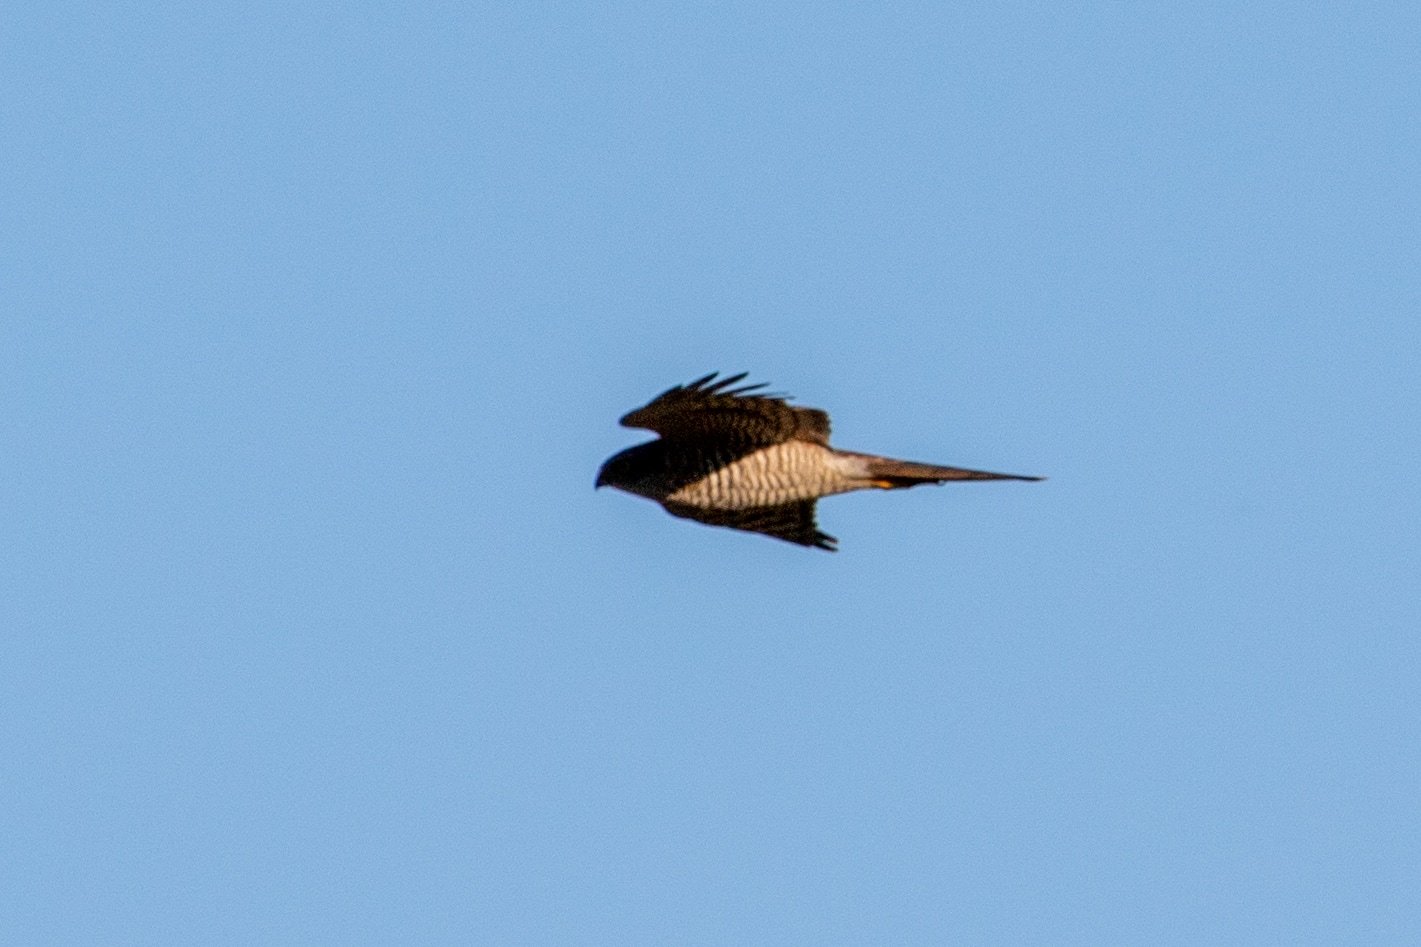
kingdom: Animalia
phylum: Chordata
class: Aves
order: Accipitriformes
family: Accipitridae
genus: Accipiter
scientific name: Accipiter nisus
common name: Eurasian sparrowhawk
